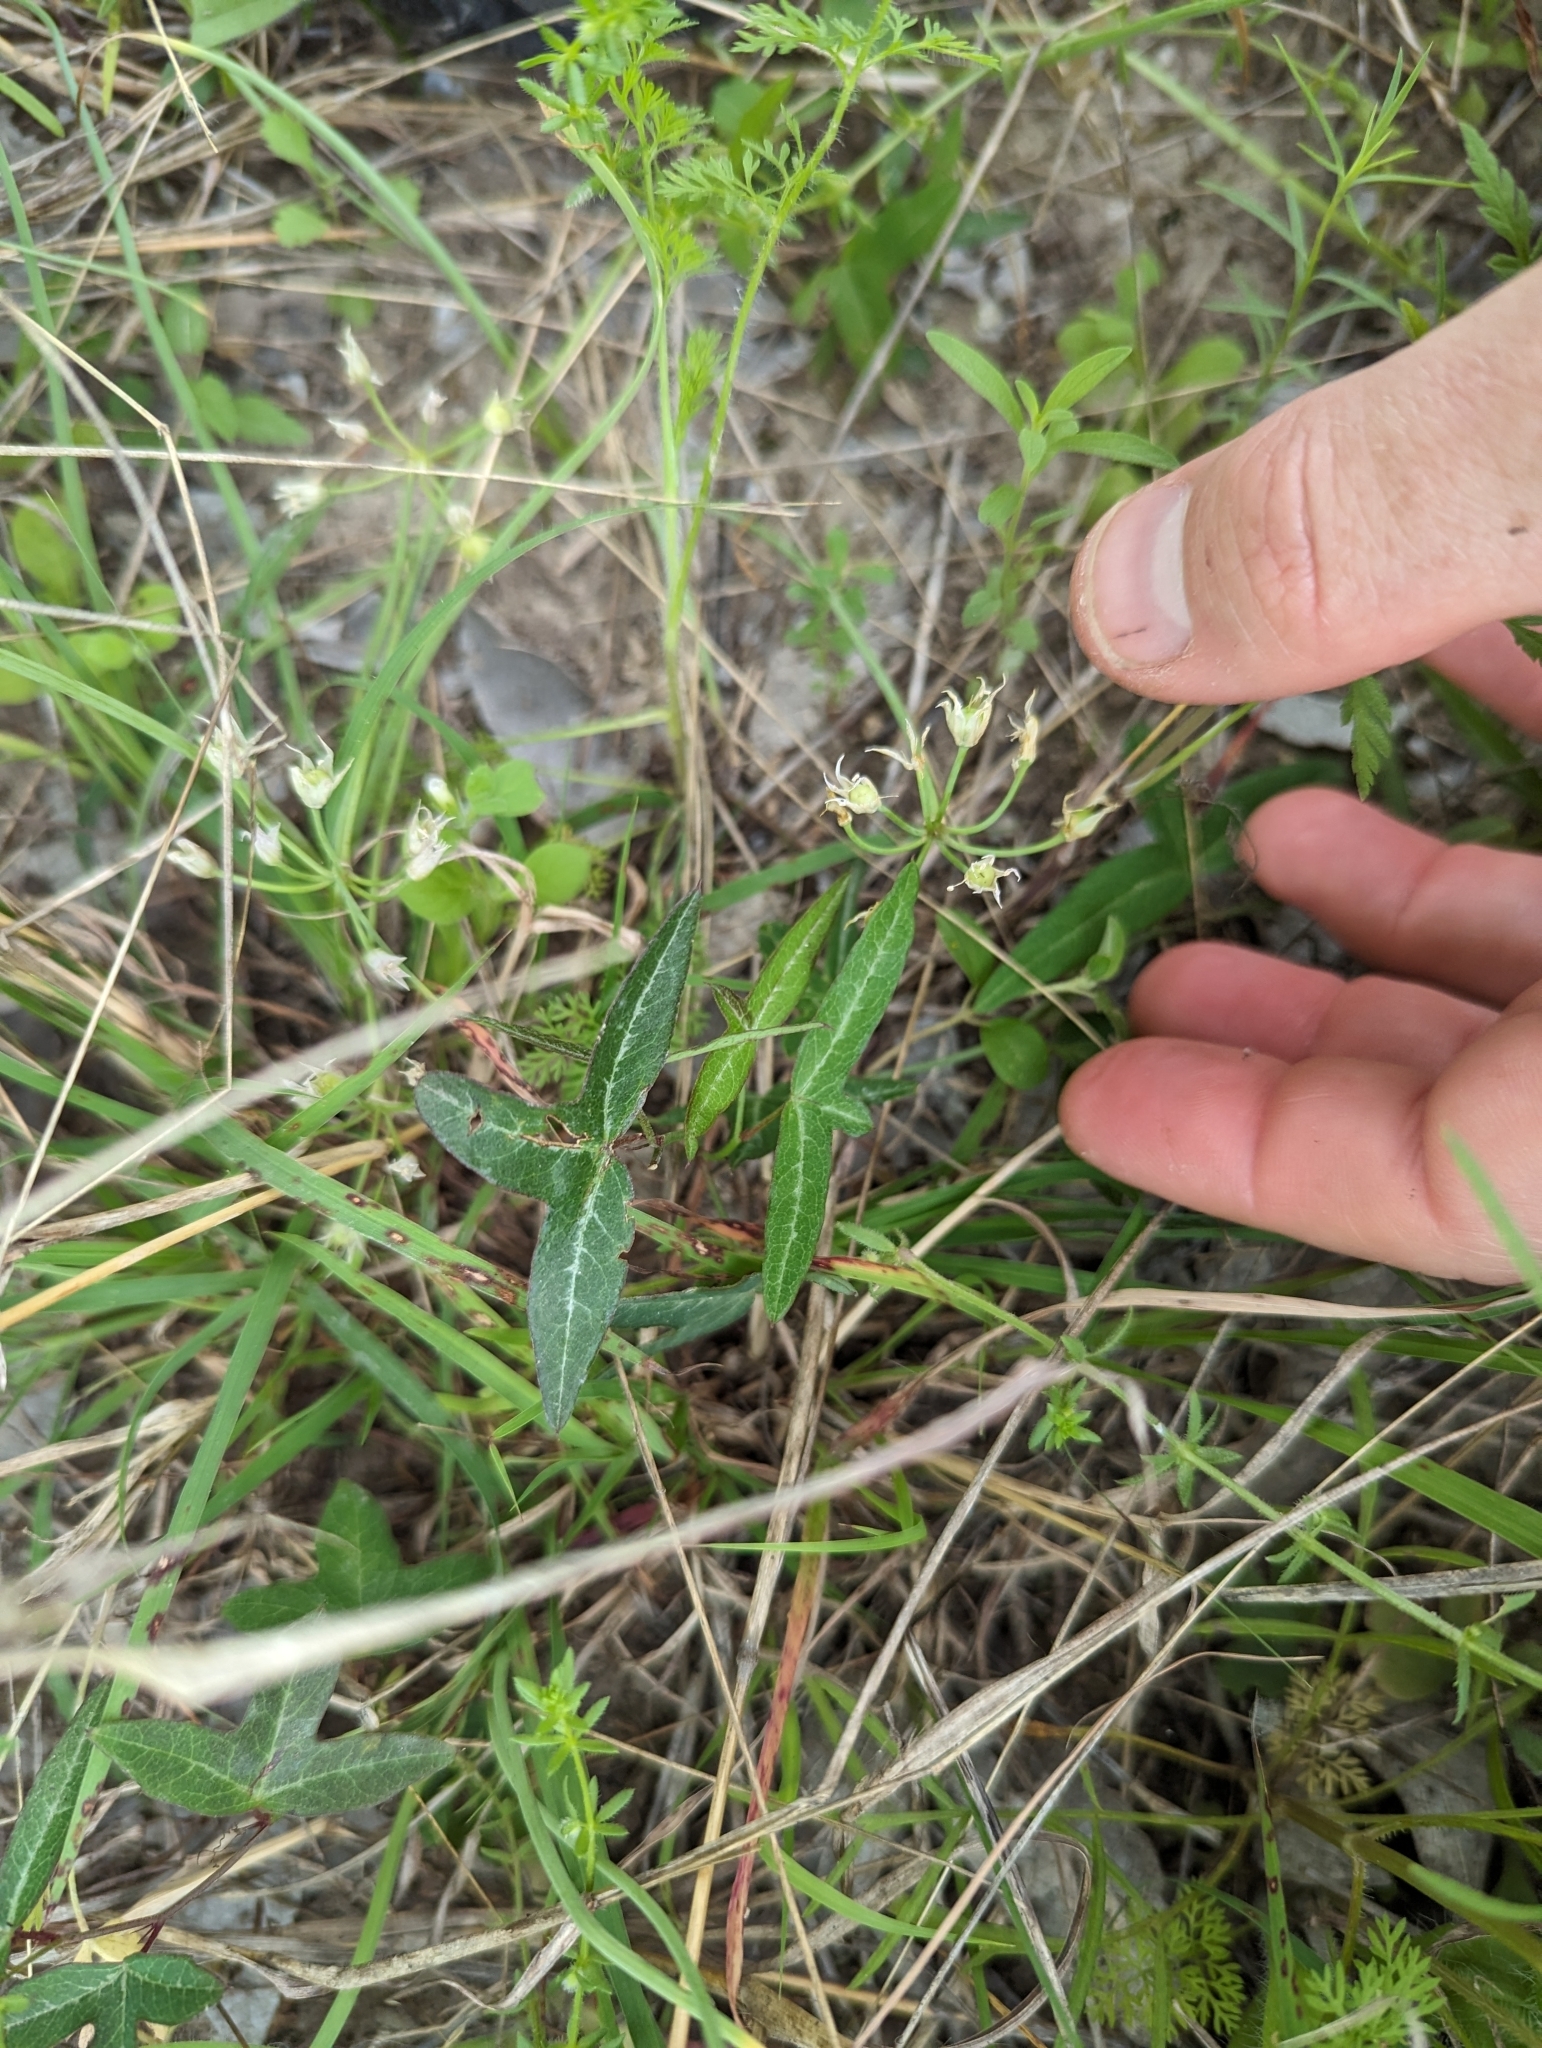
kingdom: Plantae
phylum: Tracheophyta
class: Magnoliopsida
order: Malpighiales
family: Passifloraceae
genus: Passiflora
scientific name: Passiflora tenuiloba
